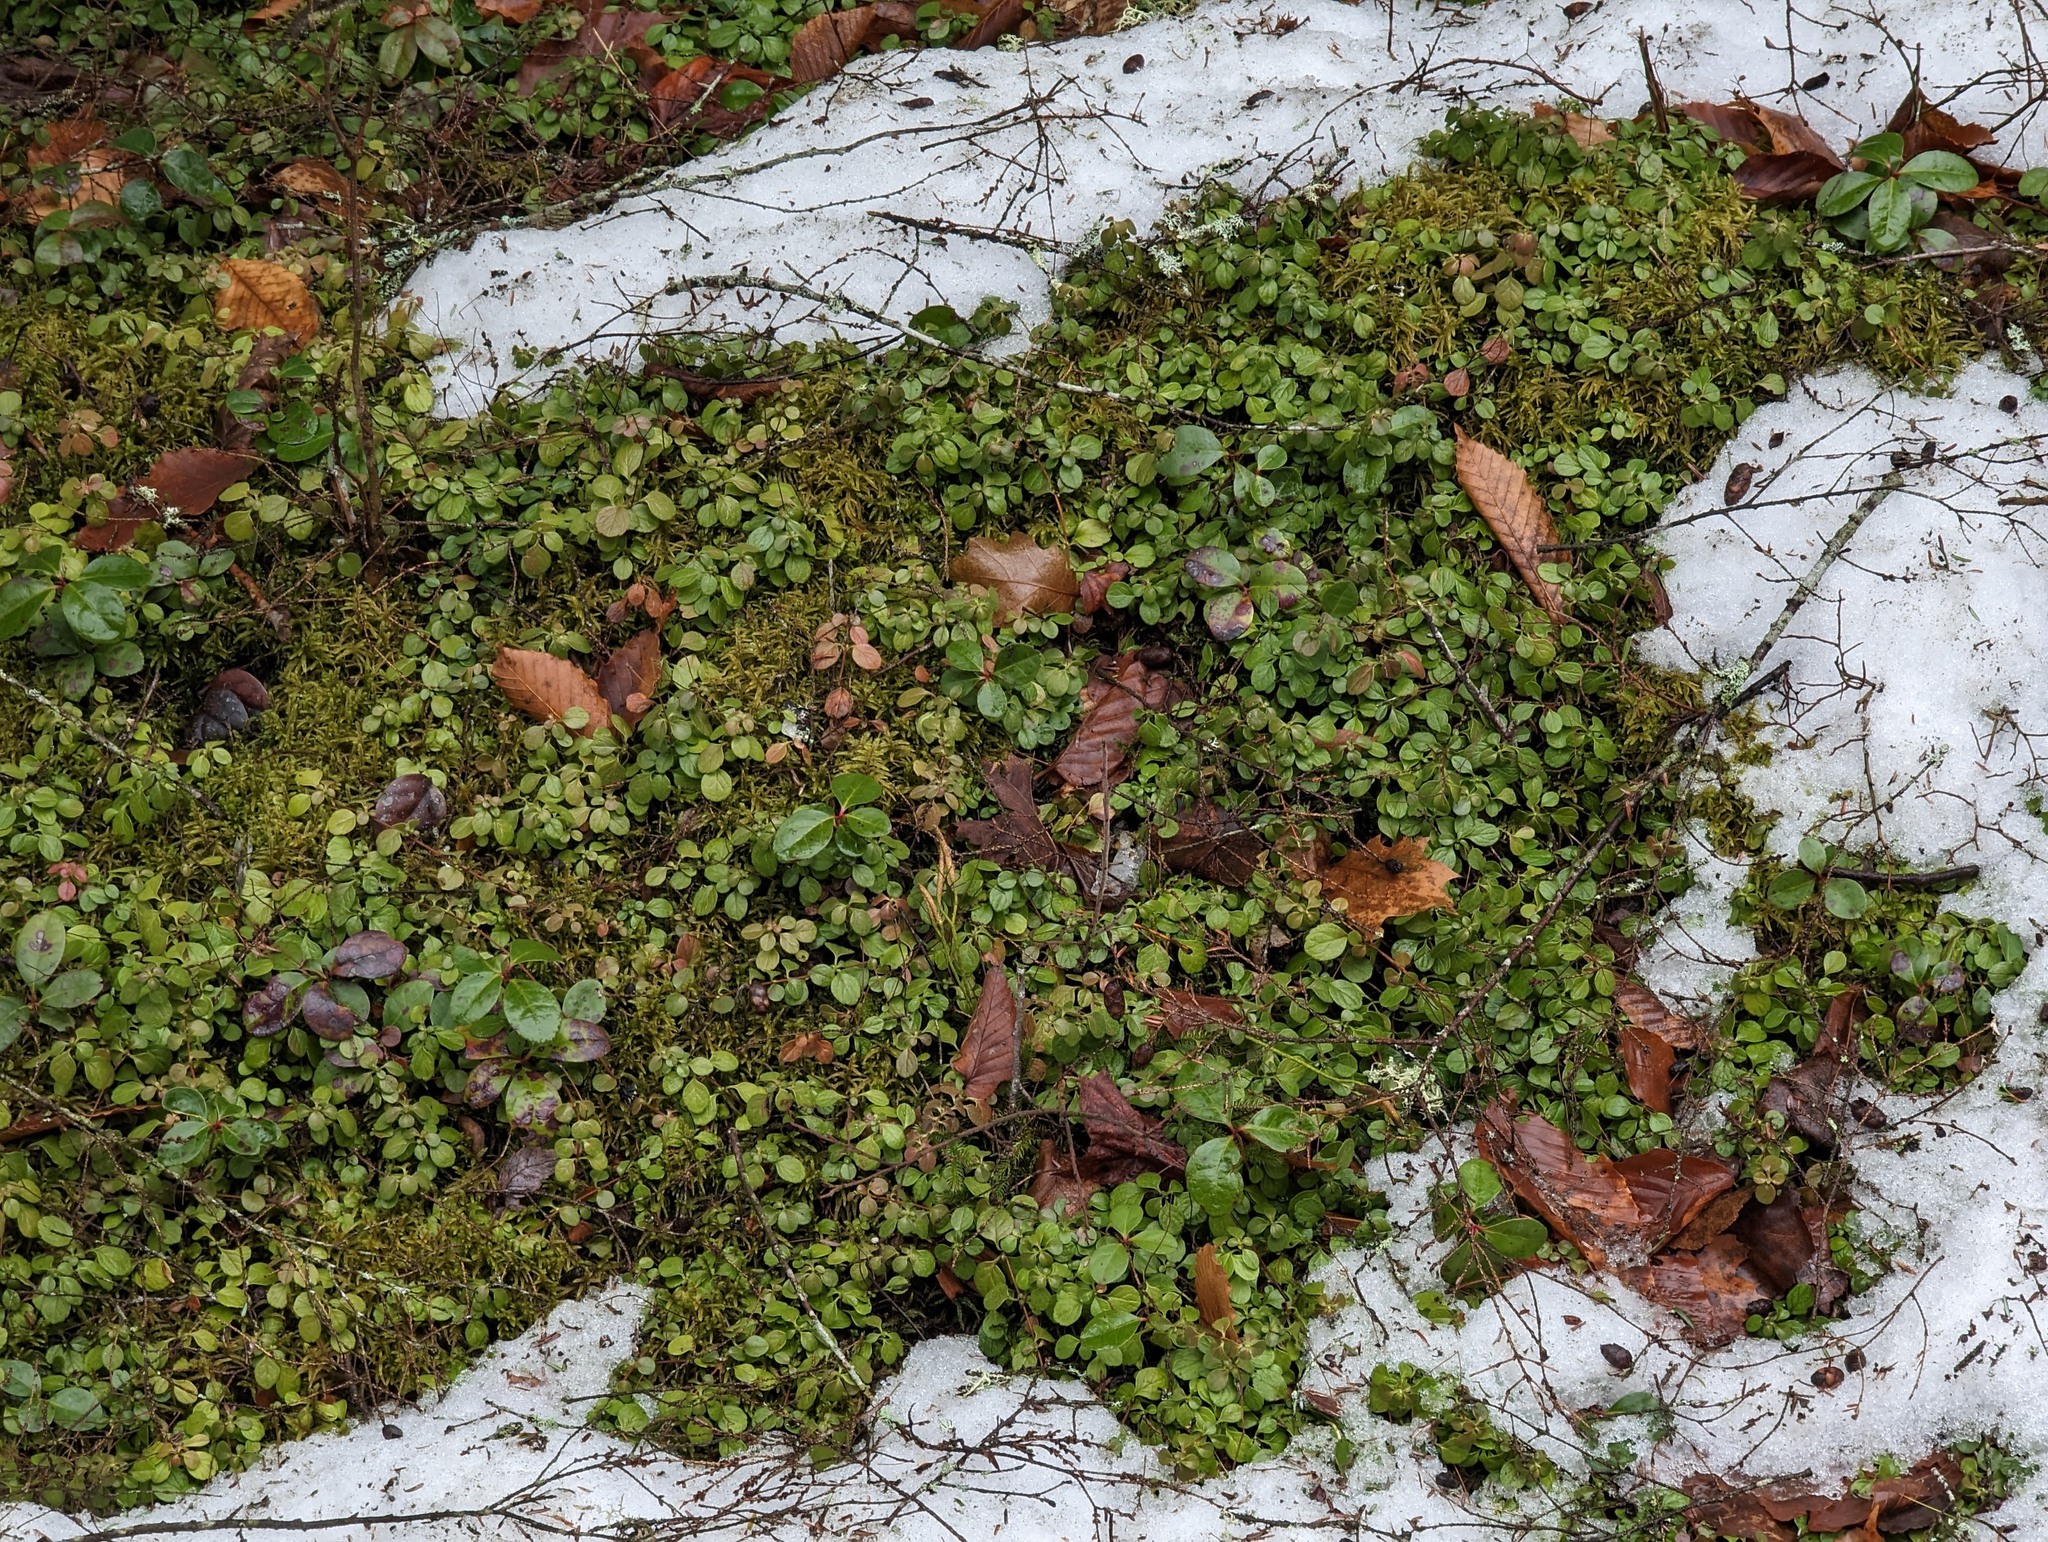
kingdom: Plantae
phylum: Tracheophyta
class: Magnoliopsida
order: Ericales
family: Ericaceae
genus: Gaultheria
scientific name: Gaultheria procumbens
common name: Checkerberry
